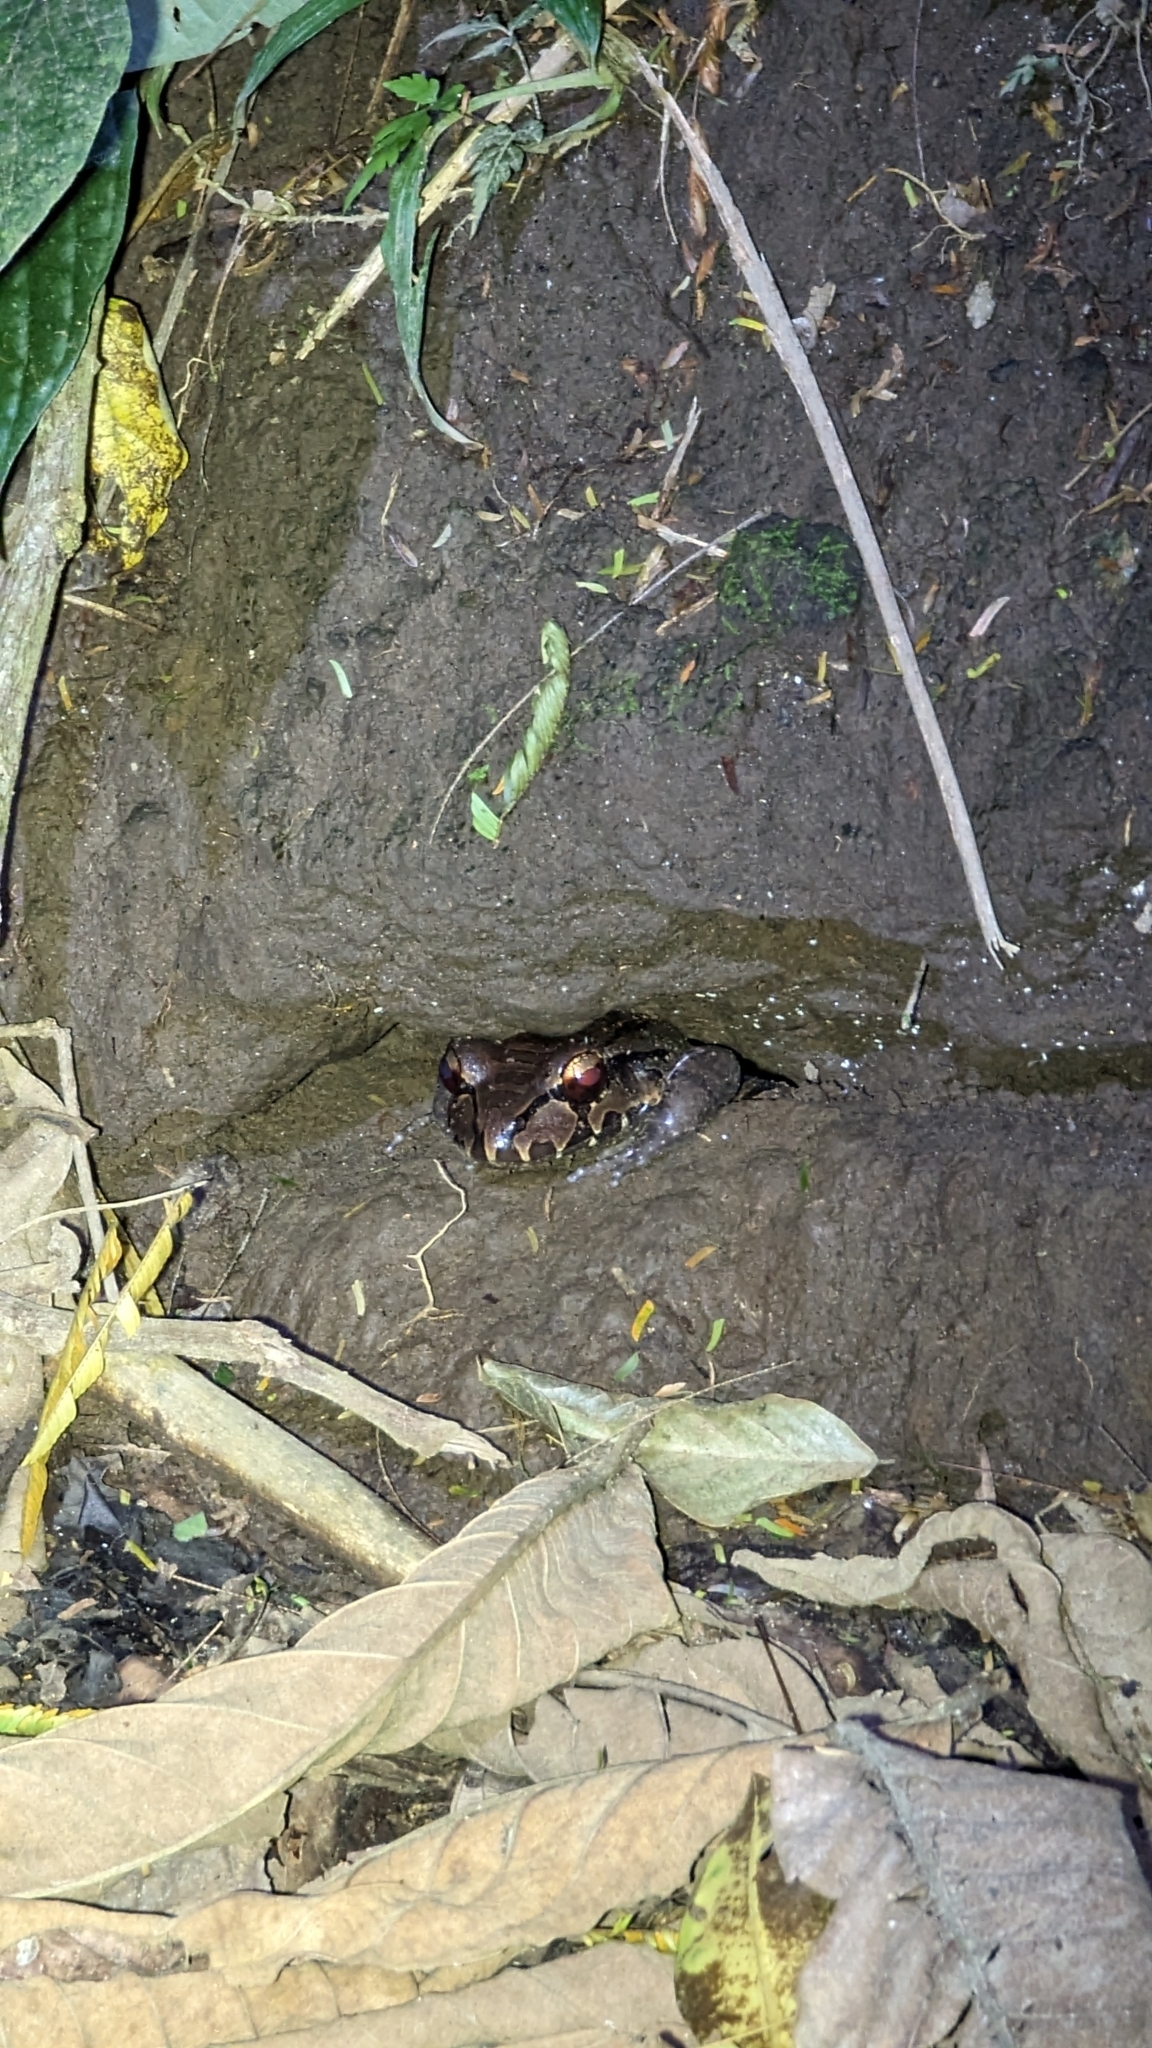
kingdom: Animalia
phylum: Chordata
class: Amphibia
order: Anura
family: Leptodactylidae
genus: Leptodactylus
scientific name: Leptodactylus savagei
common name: Savage's thin-toed frog
